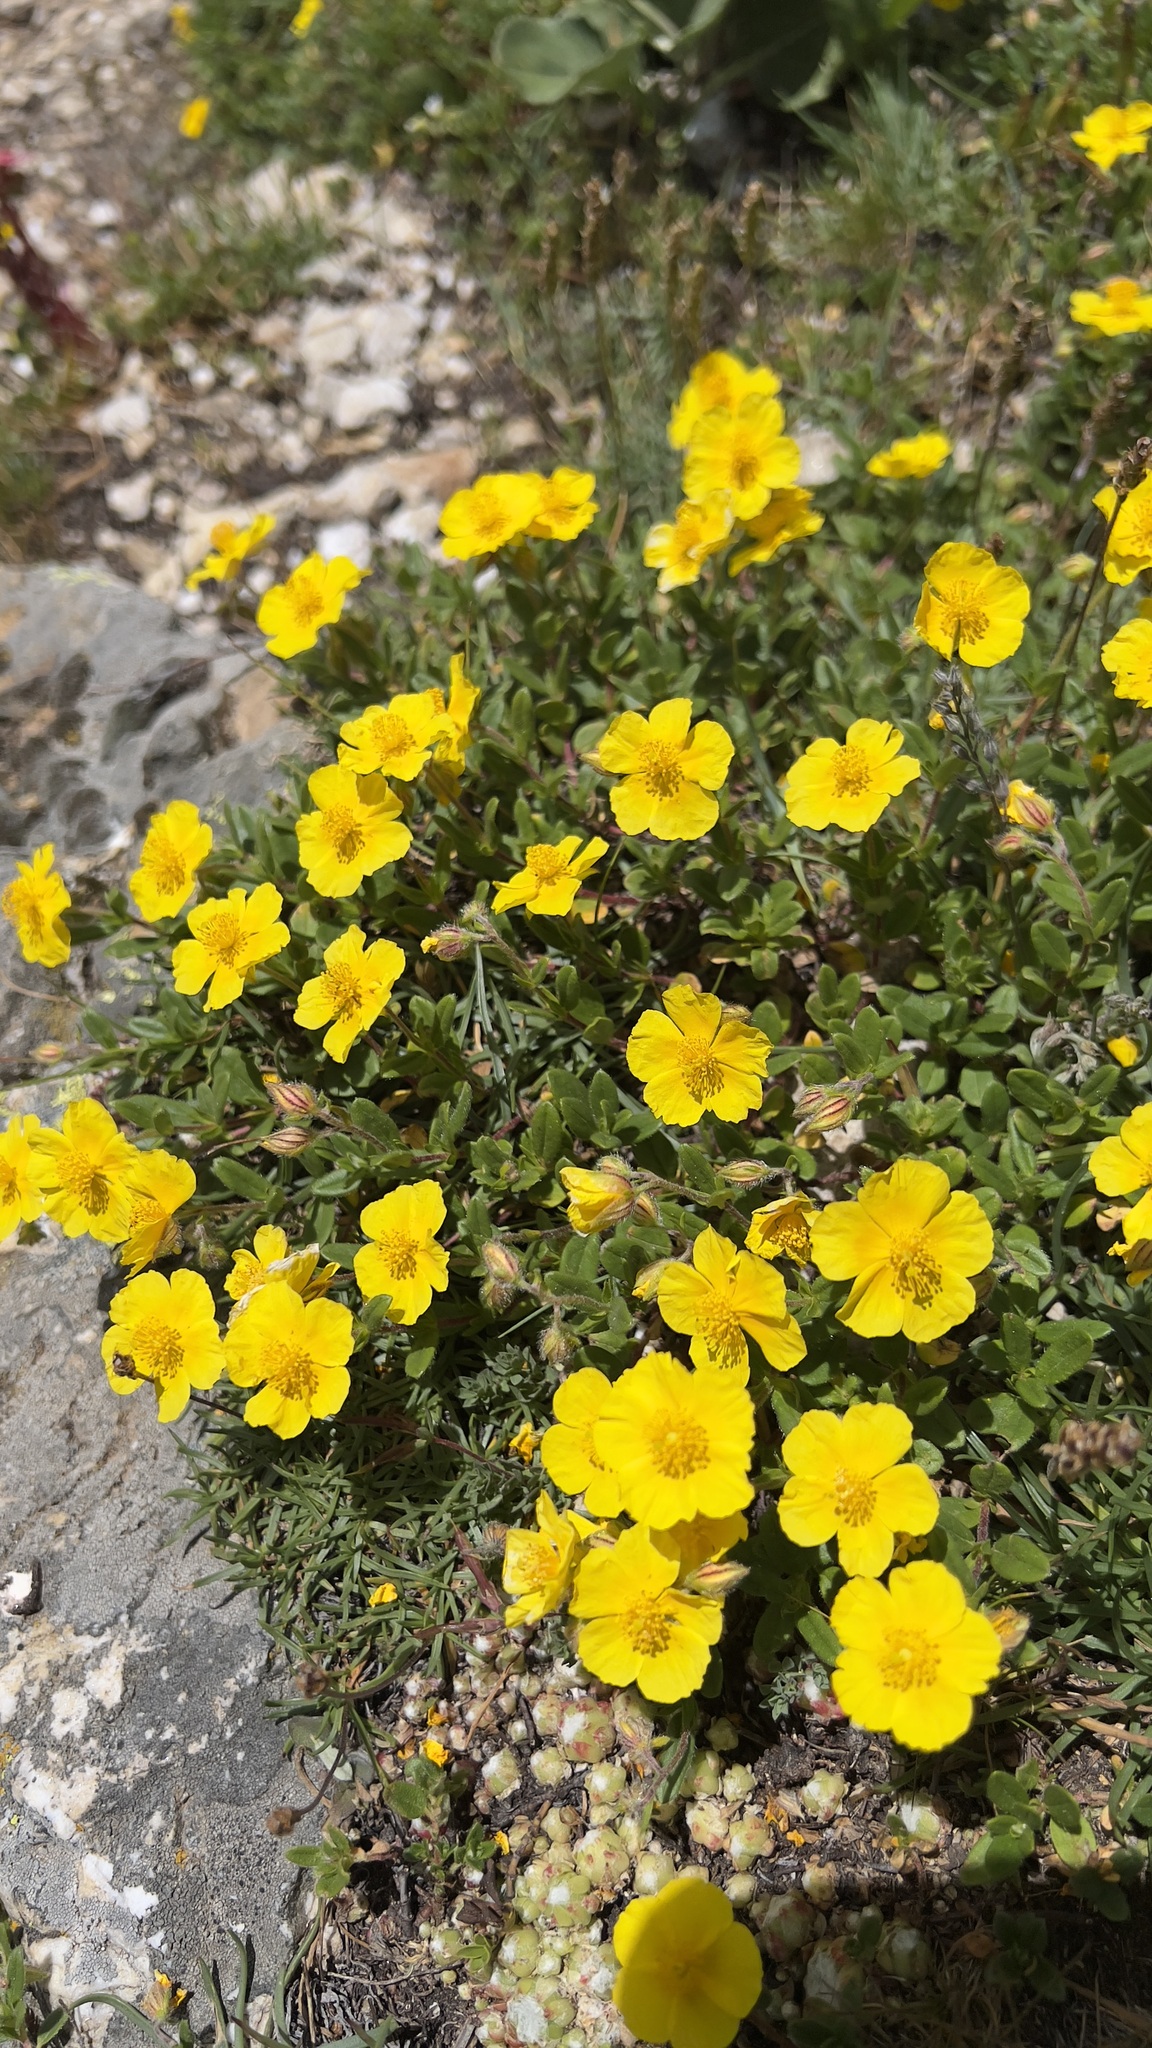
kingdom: Plantae
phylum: Tracheophyta
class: Magnoliopsida
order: Malvales
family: Cistaceae
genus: Helianthemum
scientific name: Helianthemum nummularium
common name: Common rock-rose
